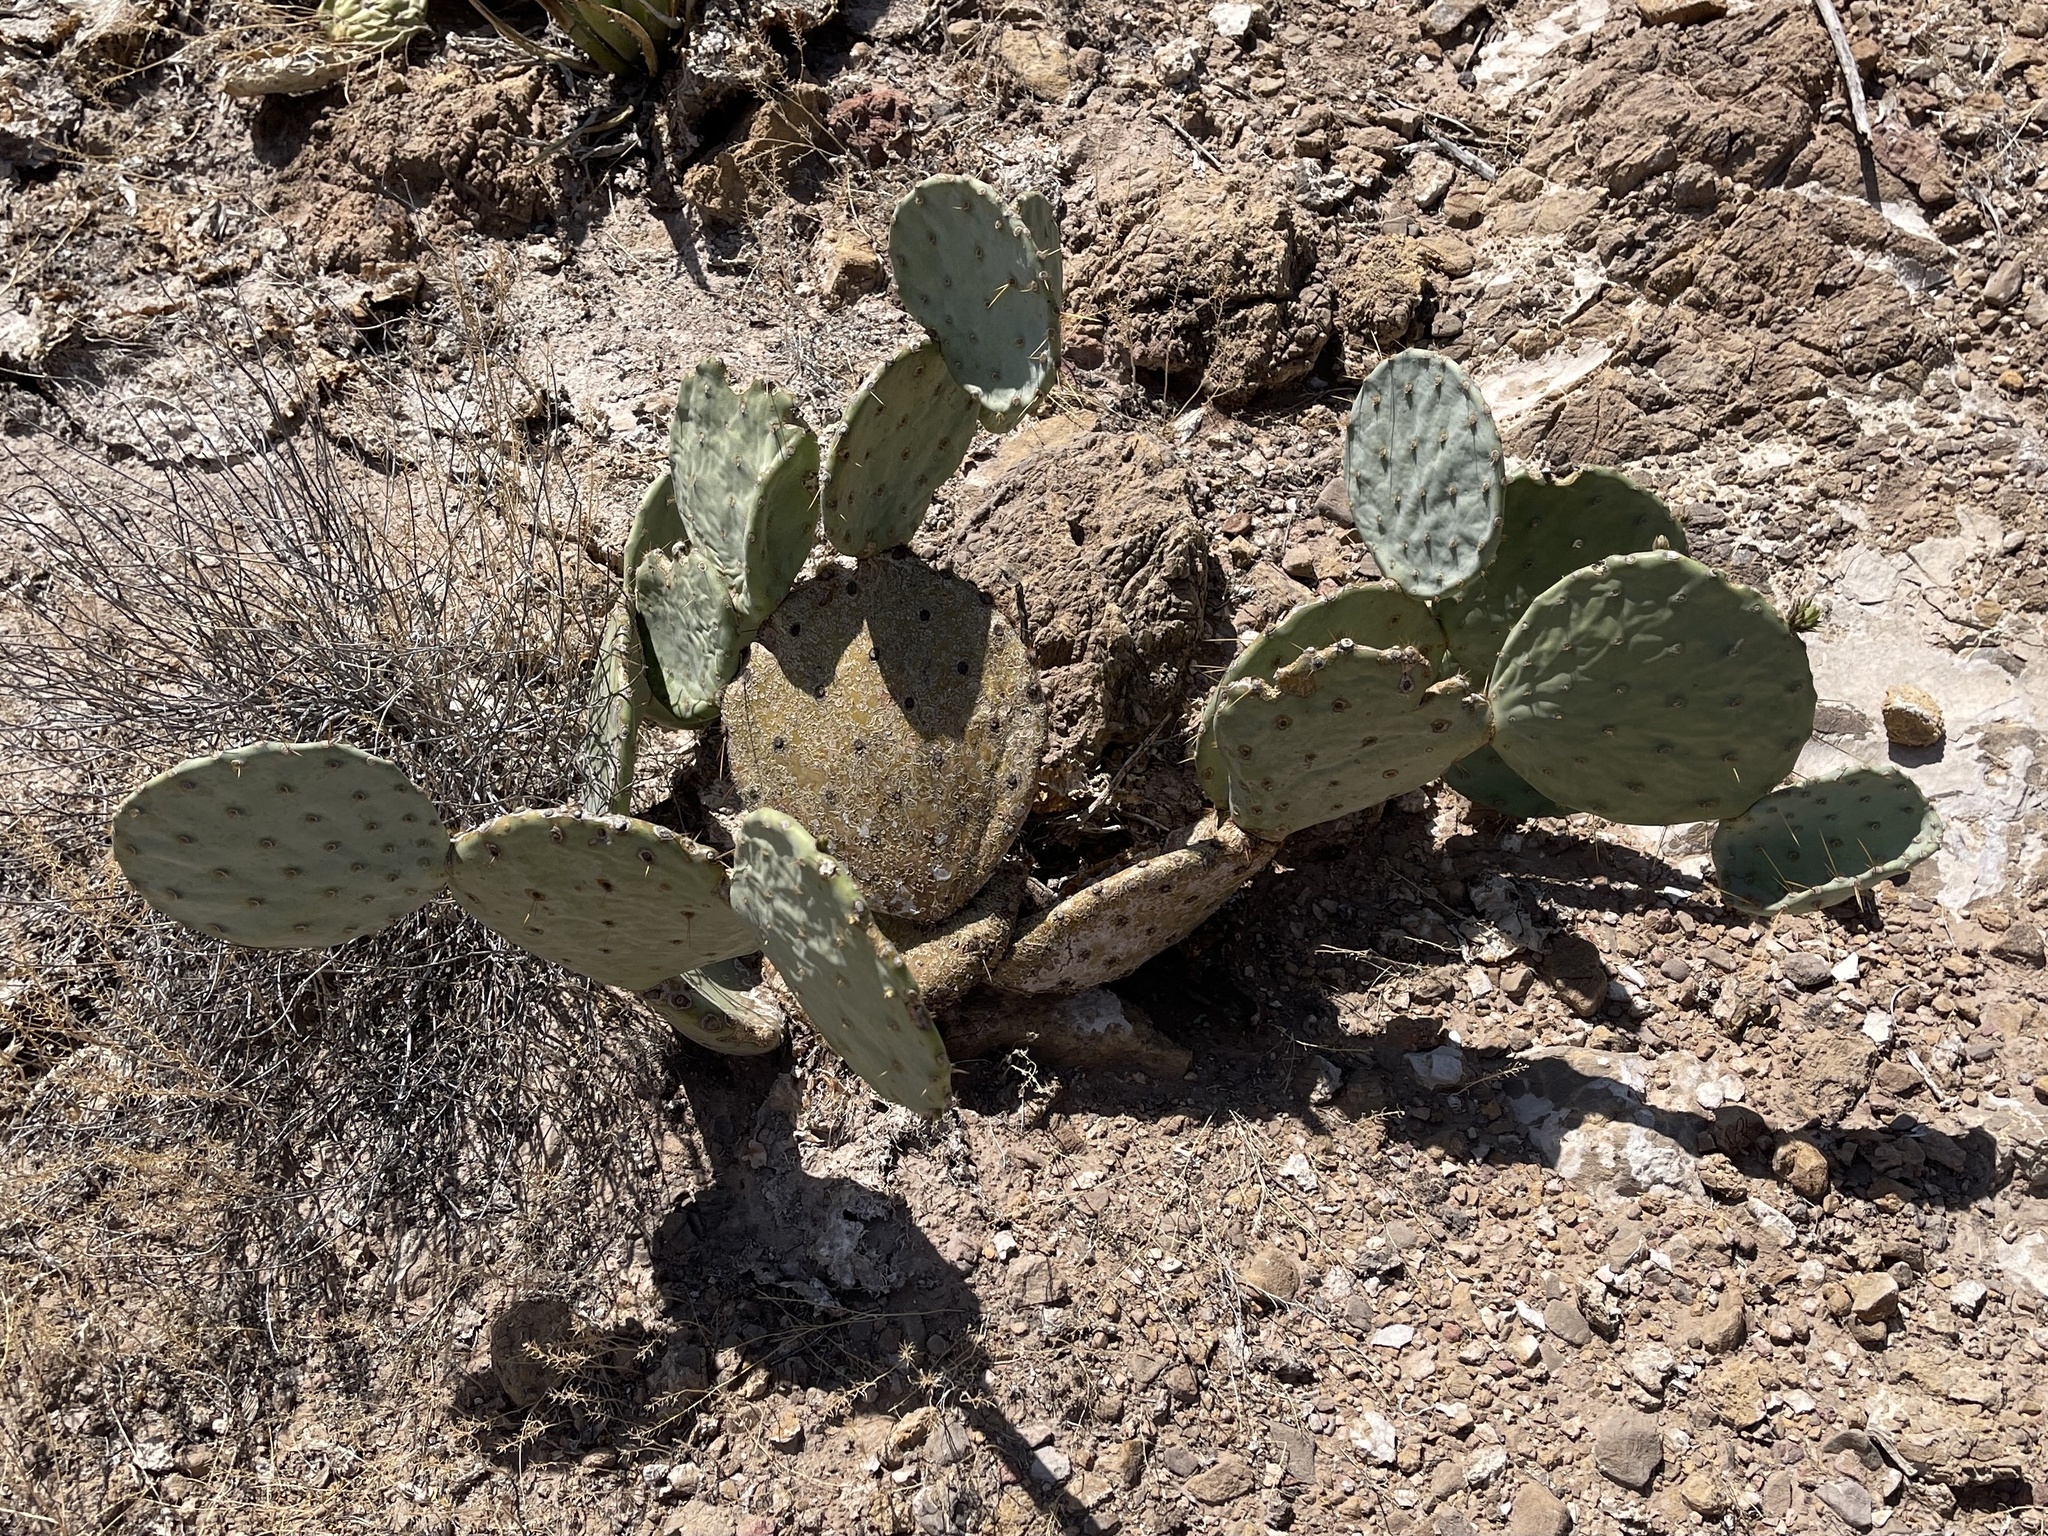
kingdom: Plantae
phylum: Tracheophyta
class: Magnoliopsida
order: Caryophyllales
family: Cactaceae
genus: Opuntia
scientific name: Opuntia engelmannii
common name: Cactus-apple
